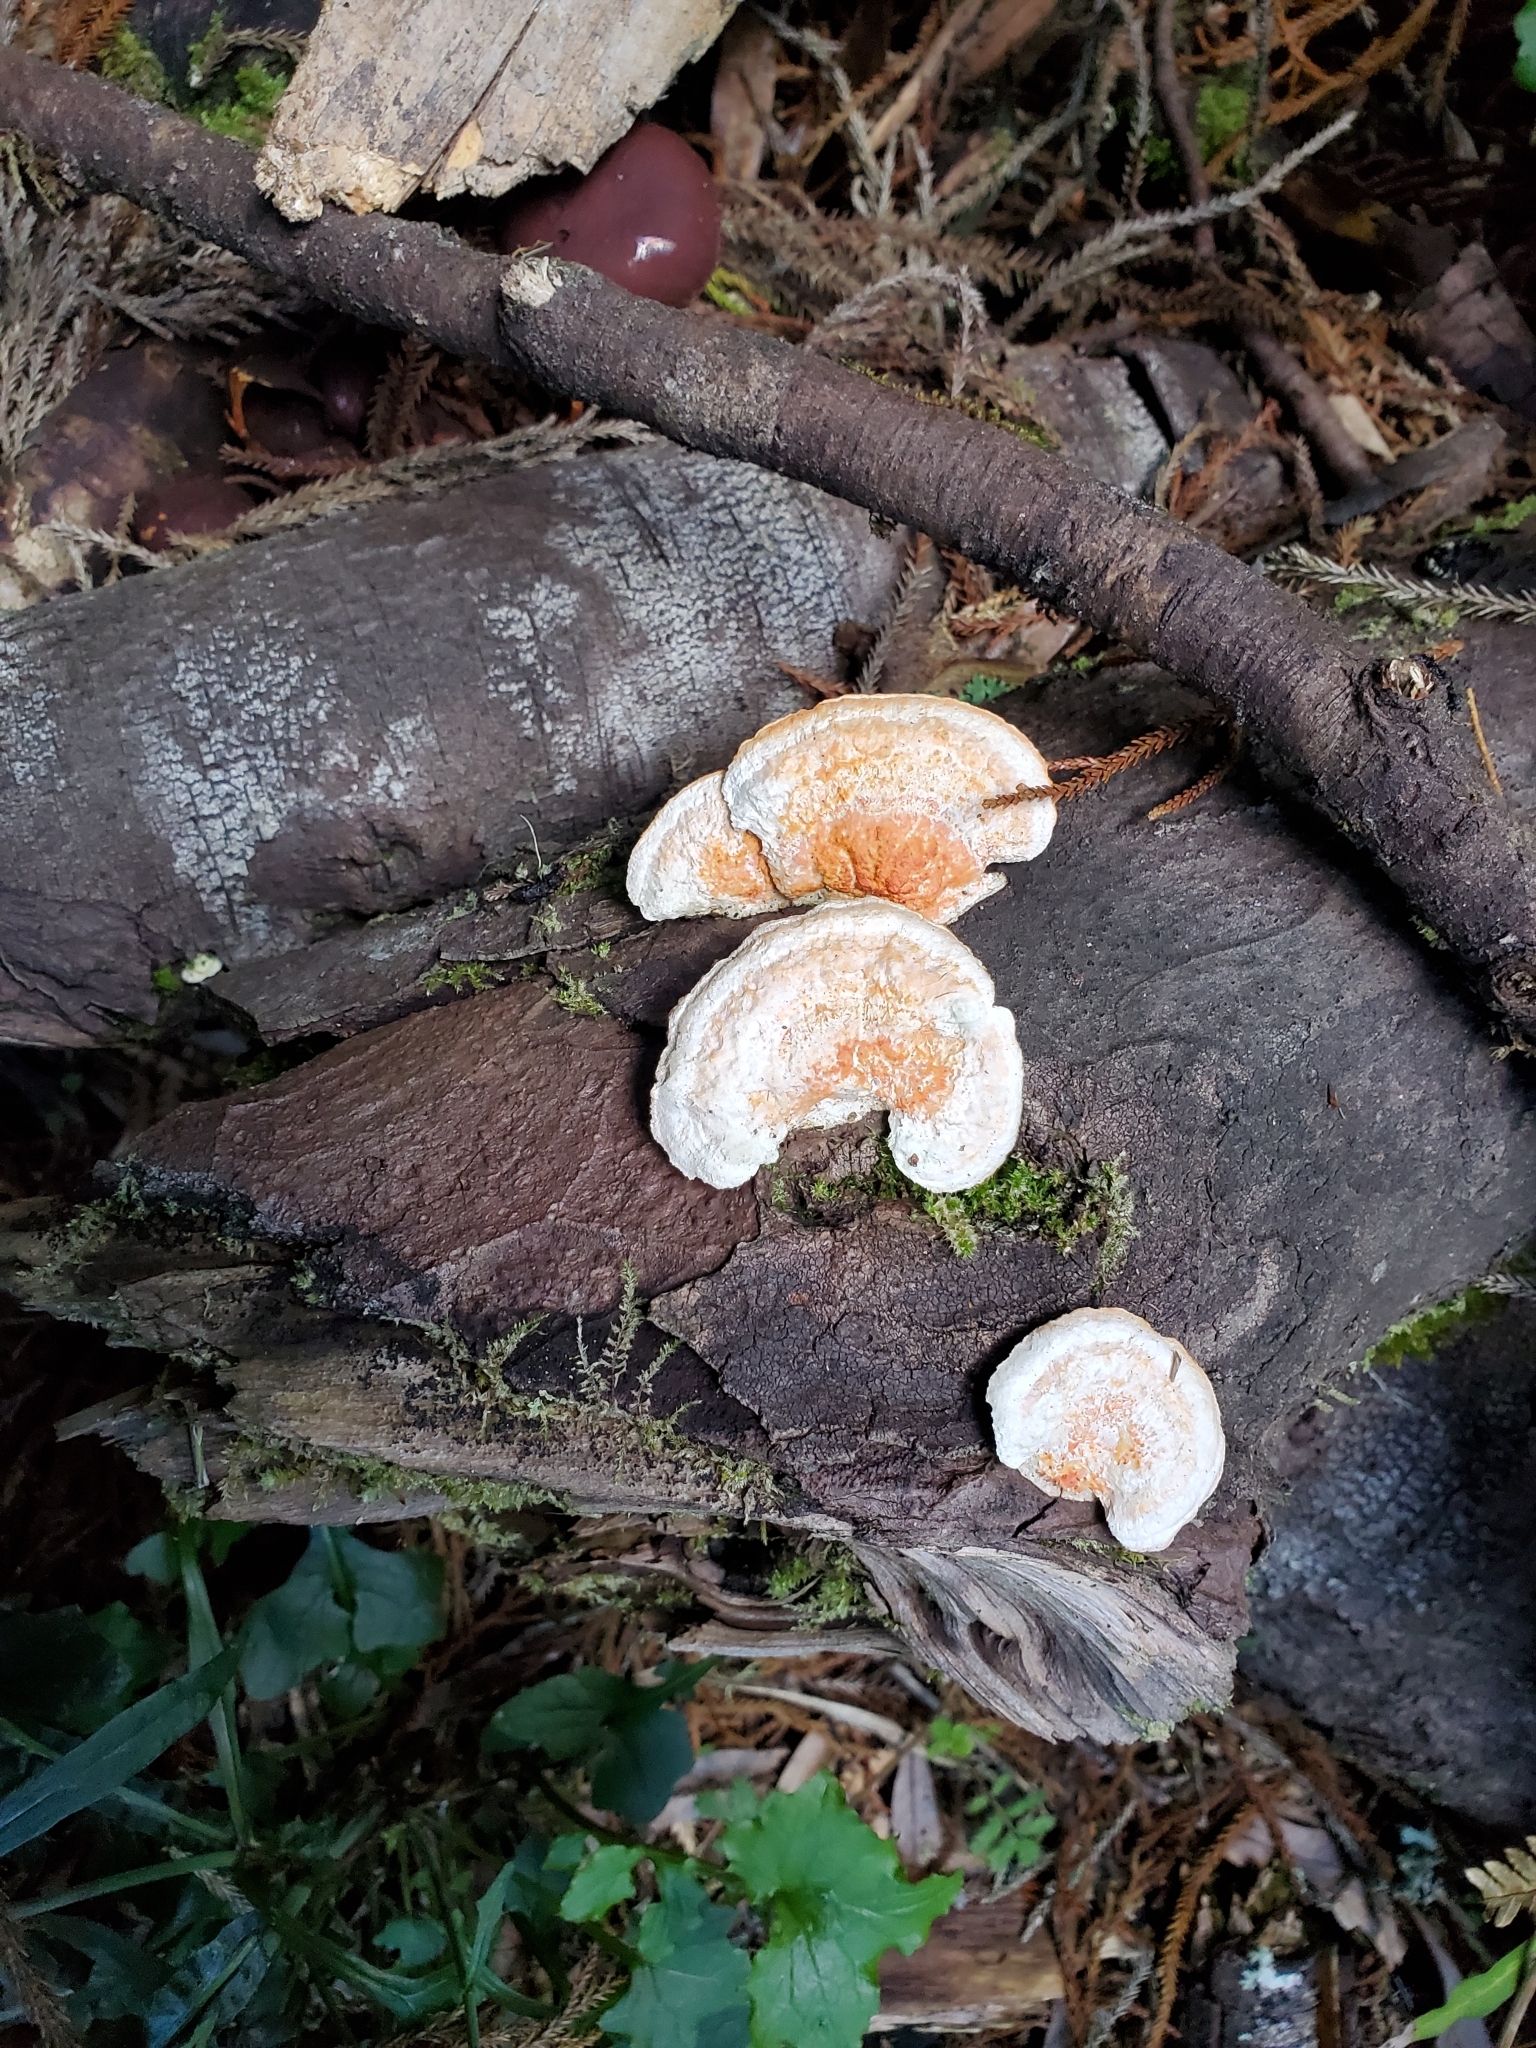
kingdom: Fungi
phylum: Basidiomycota
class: Agaricomycetes
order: Polyporales
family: Polyporaceae
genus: Trametes
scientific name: Trametes coccinea
